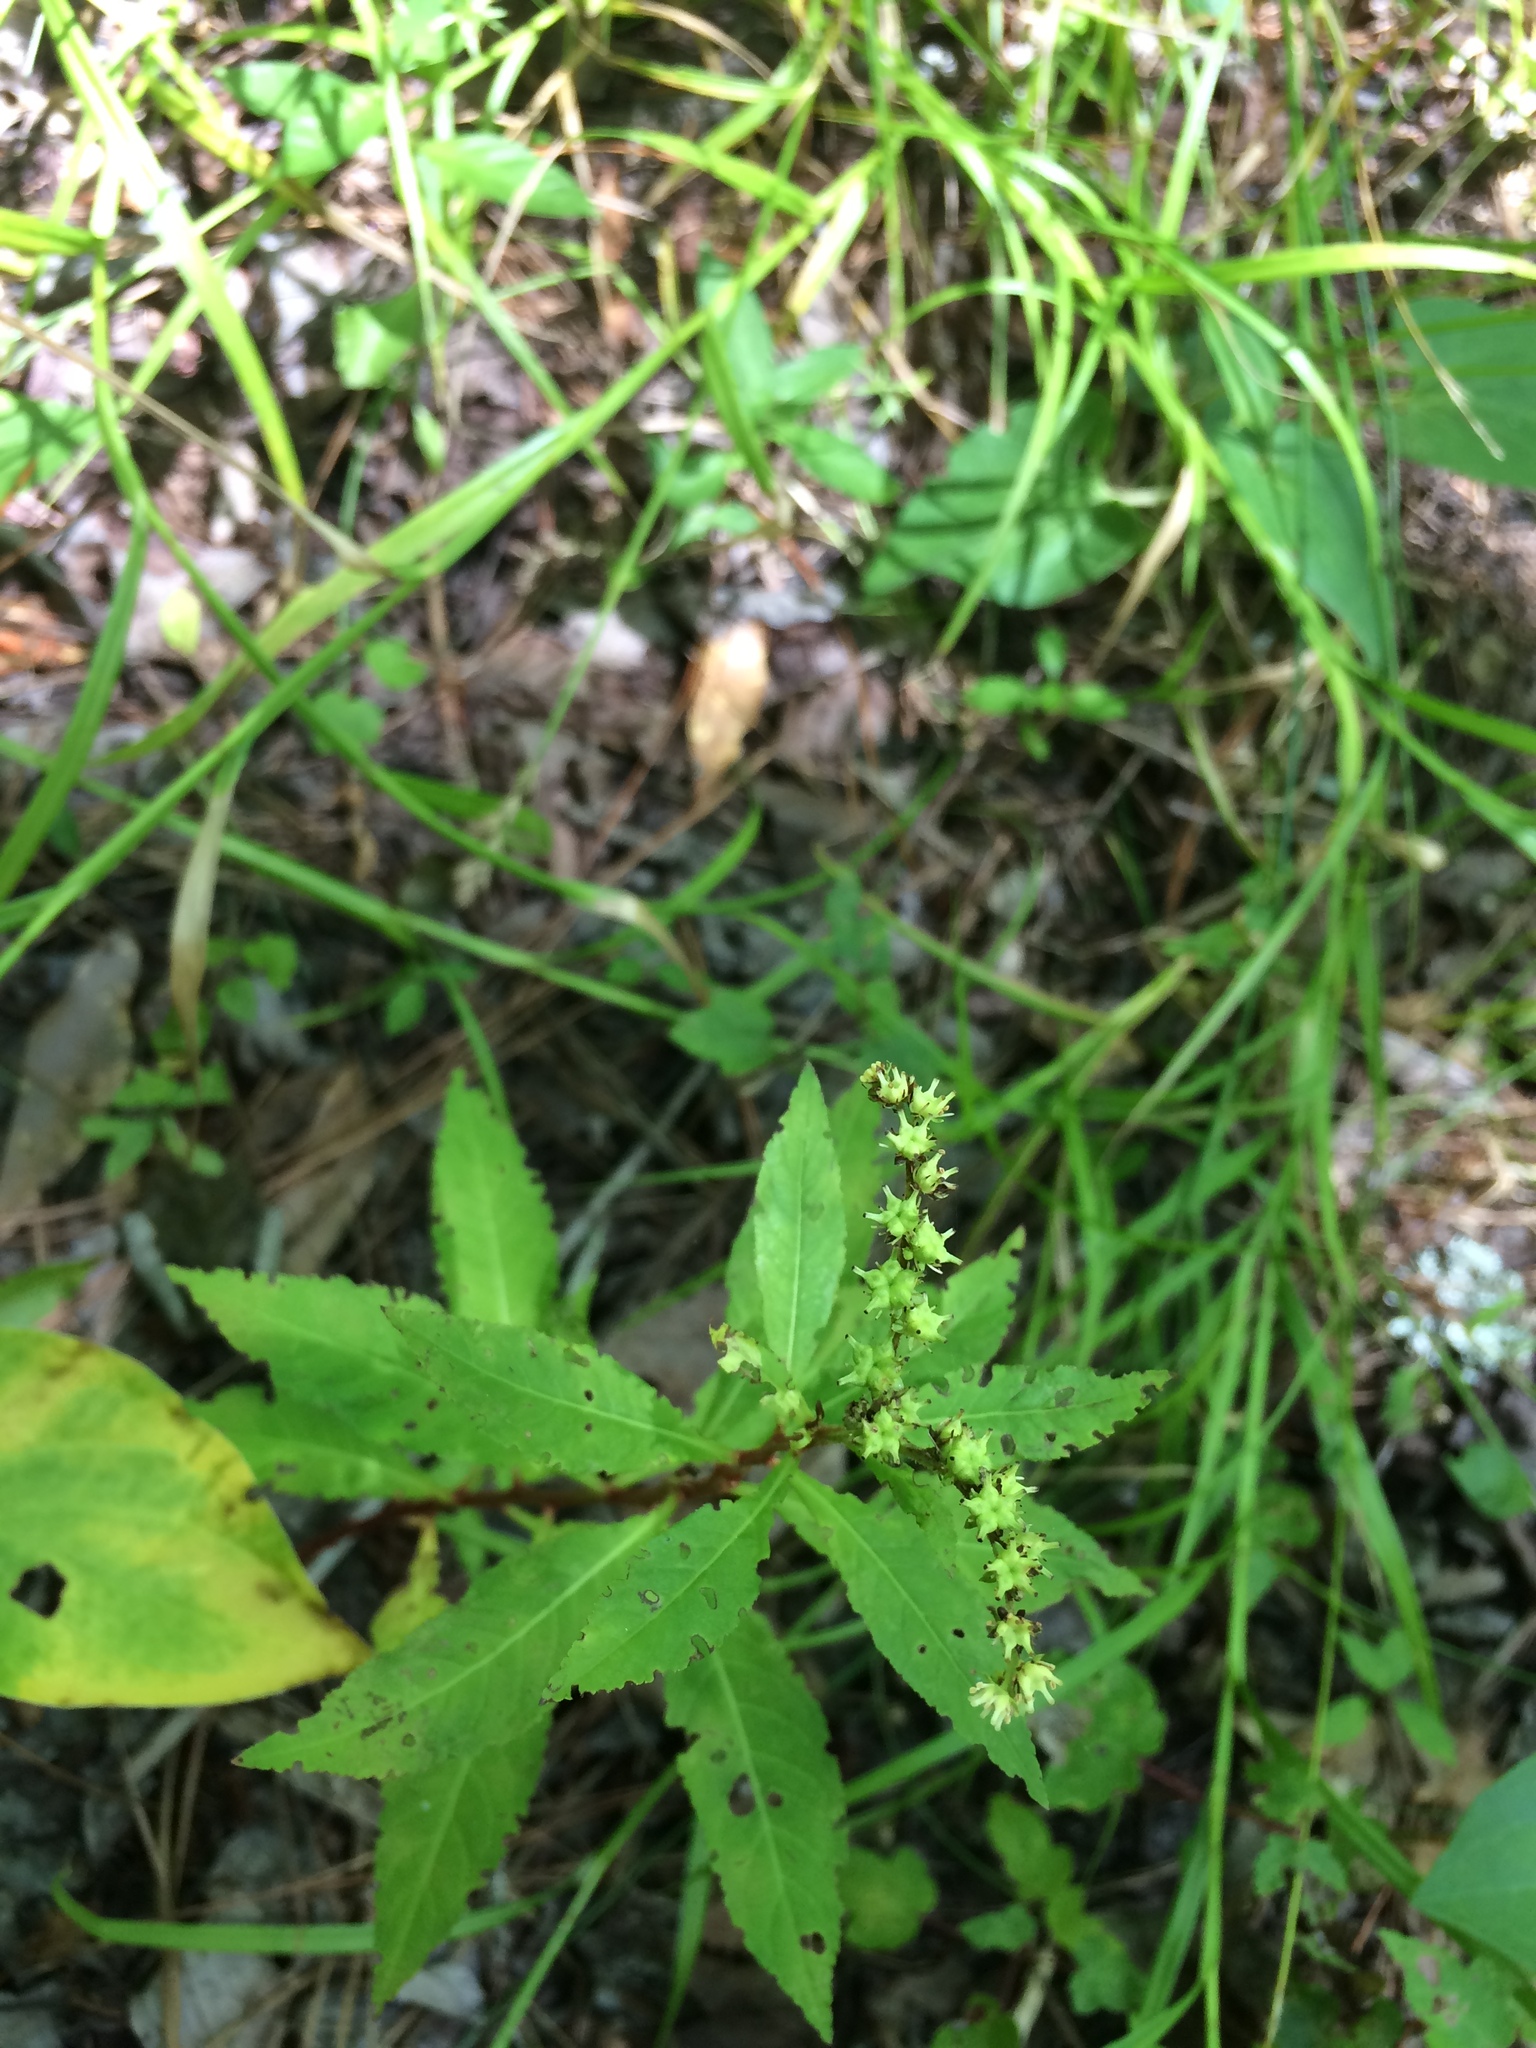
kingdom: Plantae
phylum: Tracheophyta
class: Magnoliopsida
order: Saxifragales
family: Penthoraceae
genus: Penthorum
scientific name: Penthorum sedoides
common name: Ditch stonecrop
